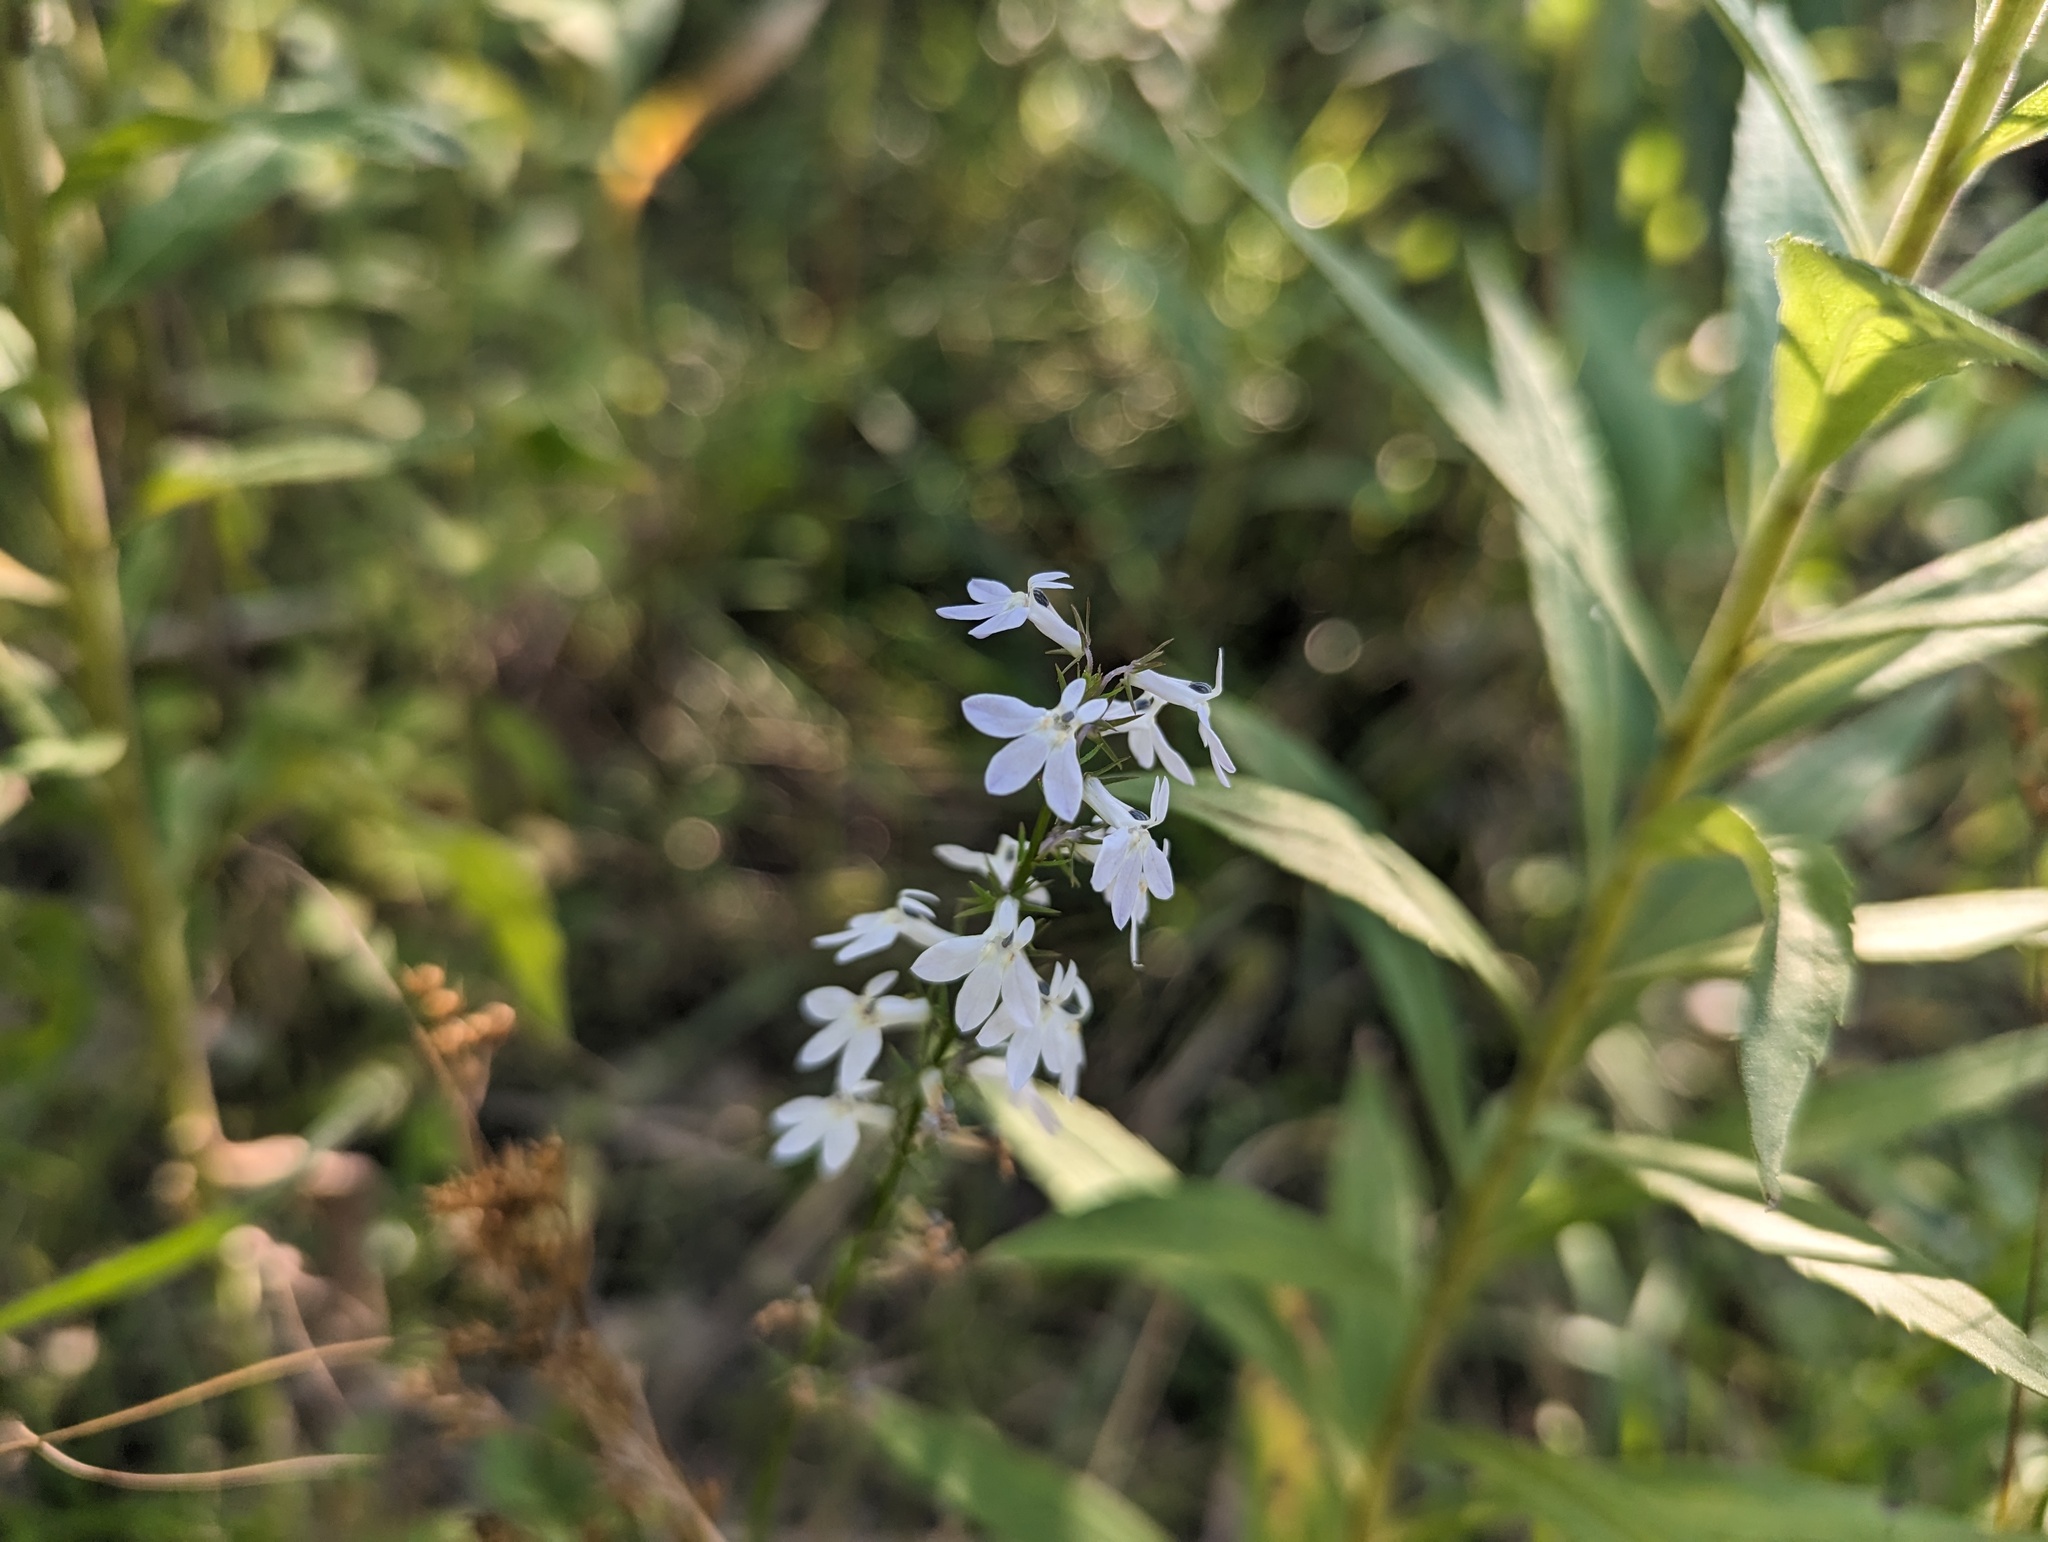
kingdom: Plantae
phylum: Tracheophyta
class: Magnoliopsida
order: Asterales
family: Campanulaceae
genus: Lobelia
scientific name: Lobelia spicata
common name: Pale-spike lobelia
